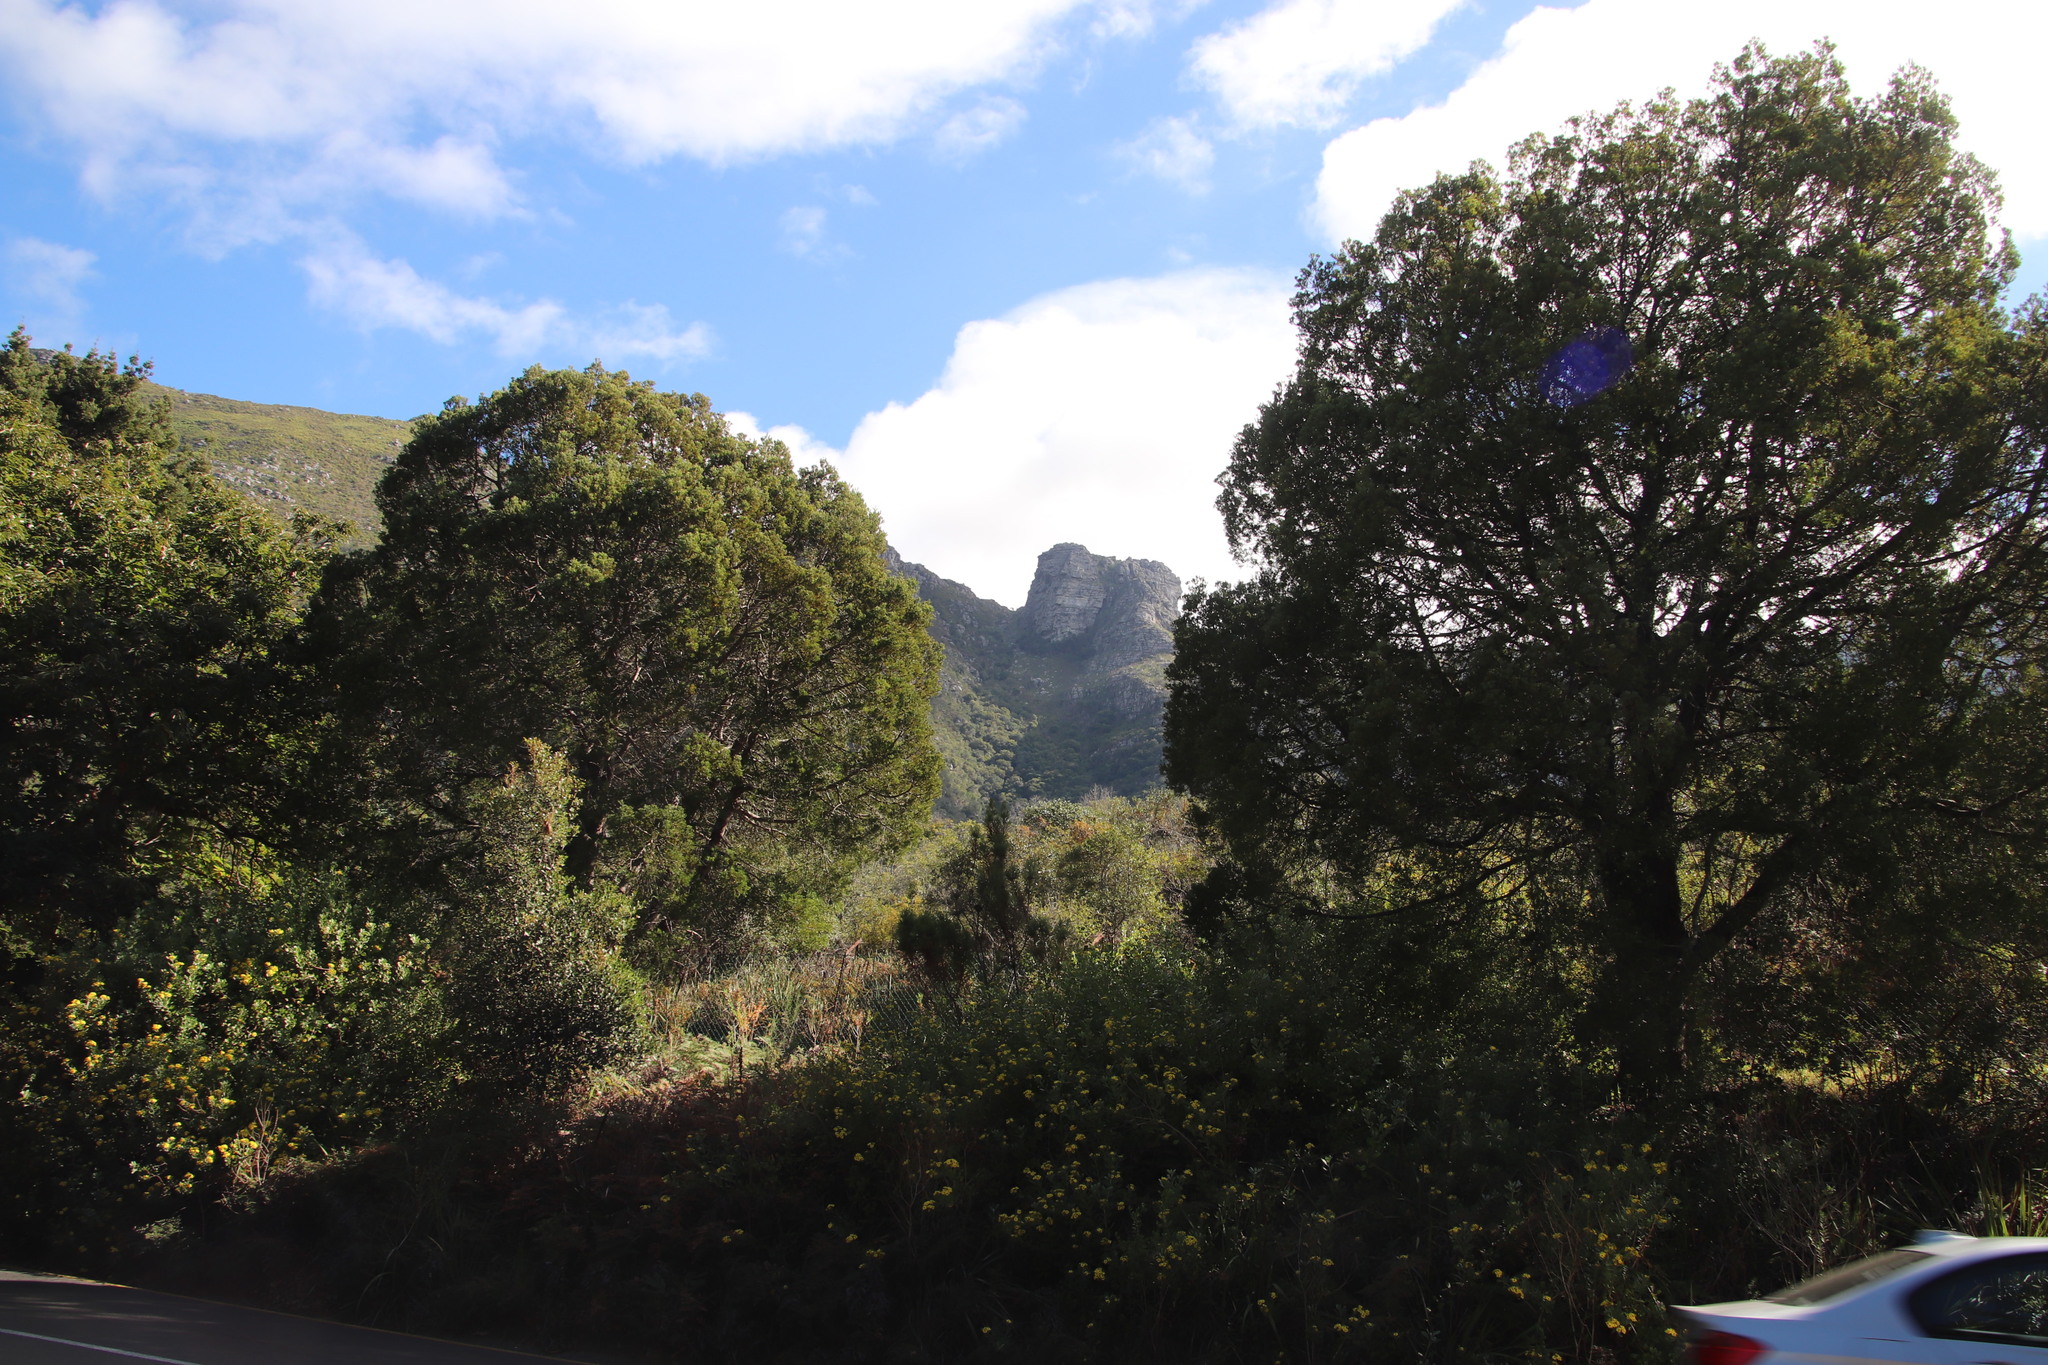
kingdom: Plantae
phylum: Tracheophyta
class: Pinopsida
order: Pinales
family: Podocarpaceae
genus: Afrocarpus
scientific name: Afrocarpus falcatus
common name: Bastard yellowwood
